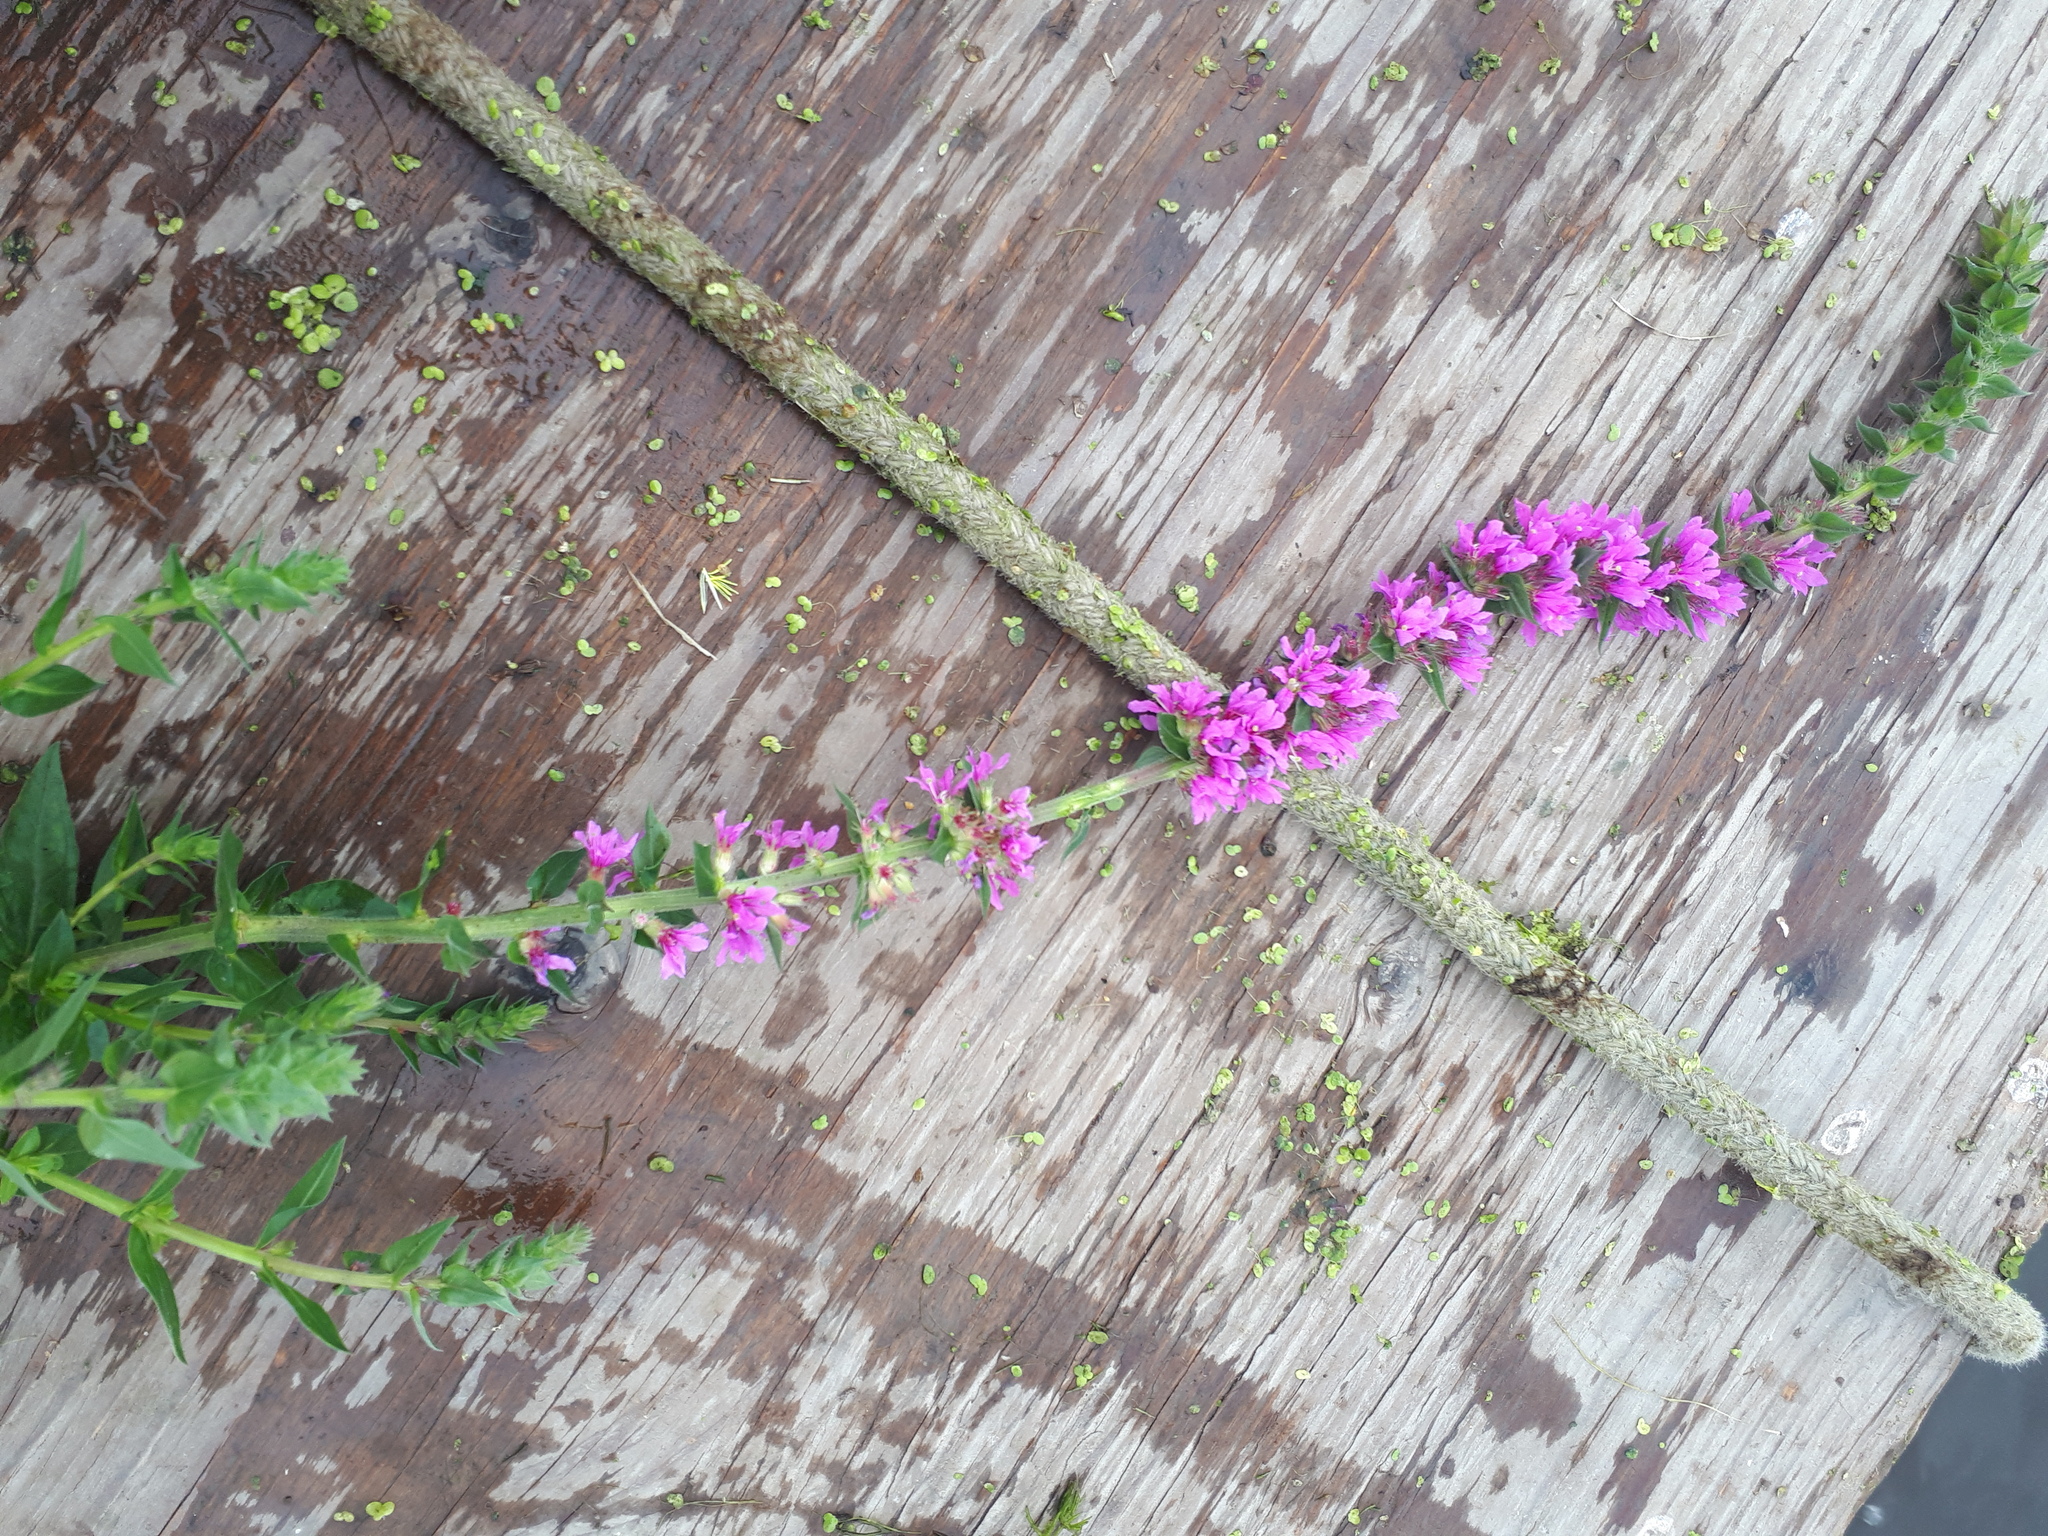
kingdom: Plantae
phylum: Tracheophyta
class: Magnoliopsida
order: Myrtales
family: Lythraceae
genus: Lythrum
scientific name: Lythrum salicaria
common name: Purple loosestrife
